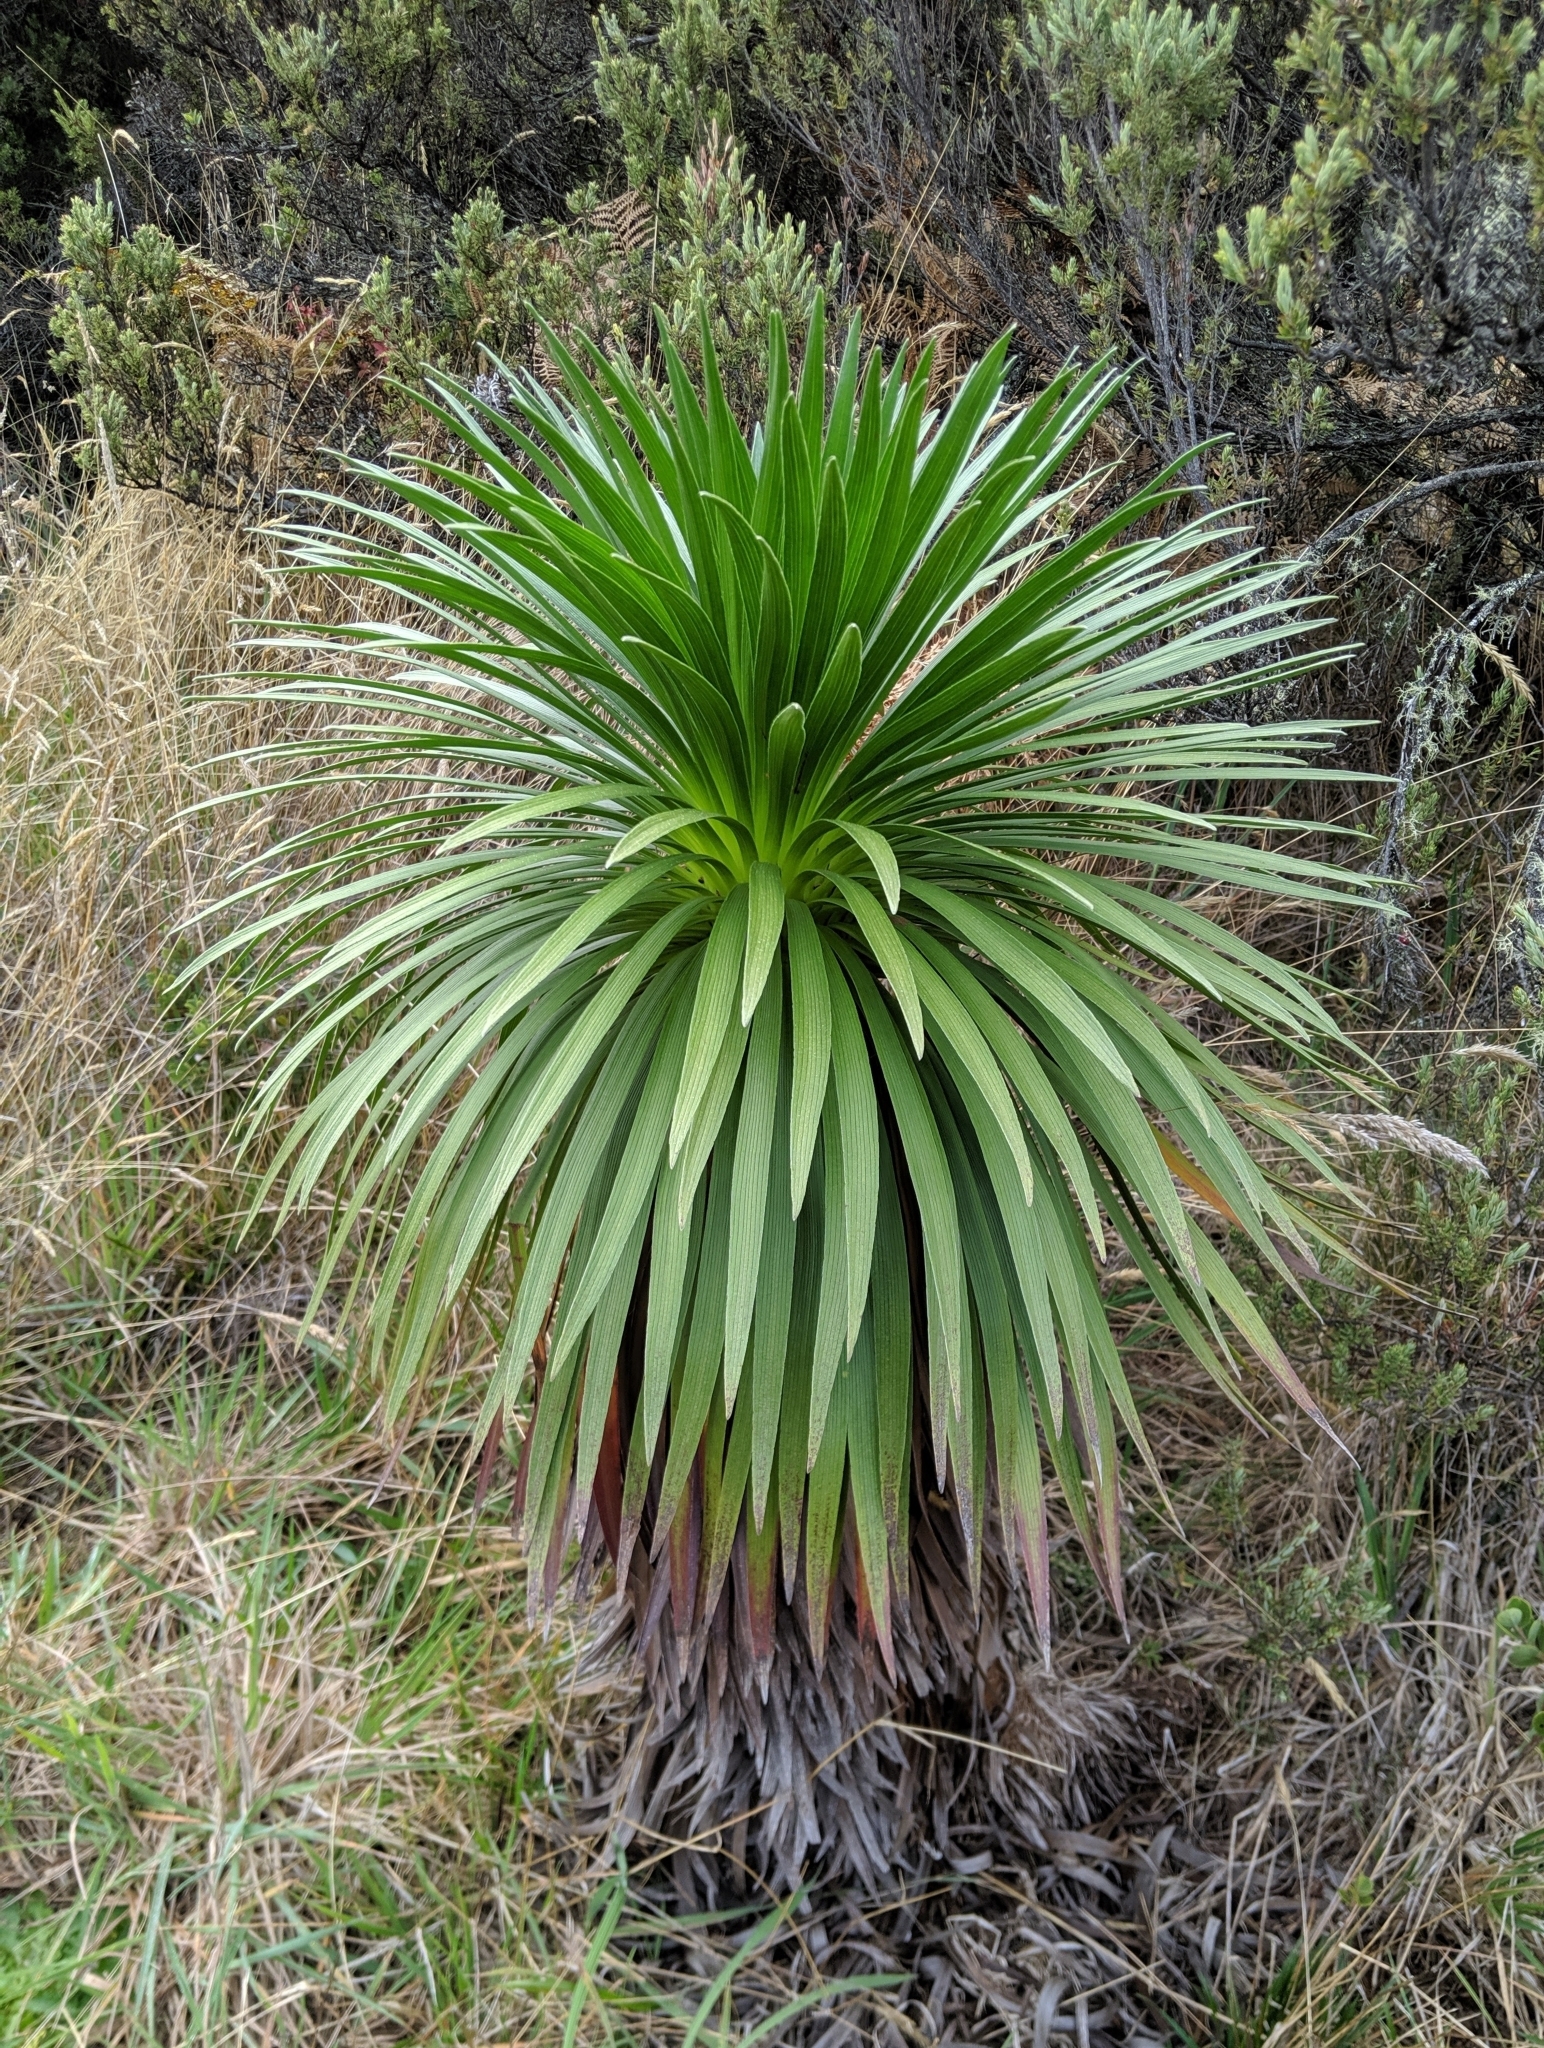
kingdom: Plantae
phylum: Tracheophyta
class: Magnoliopsida
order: Asterales
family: Asteraceae
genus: Argyroxiphium
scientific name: Argyroxiphium grayanum
